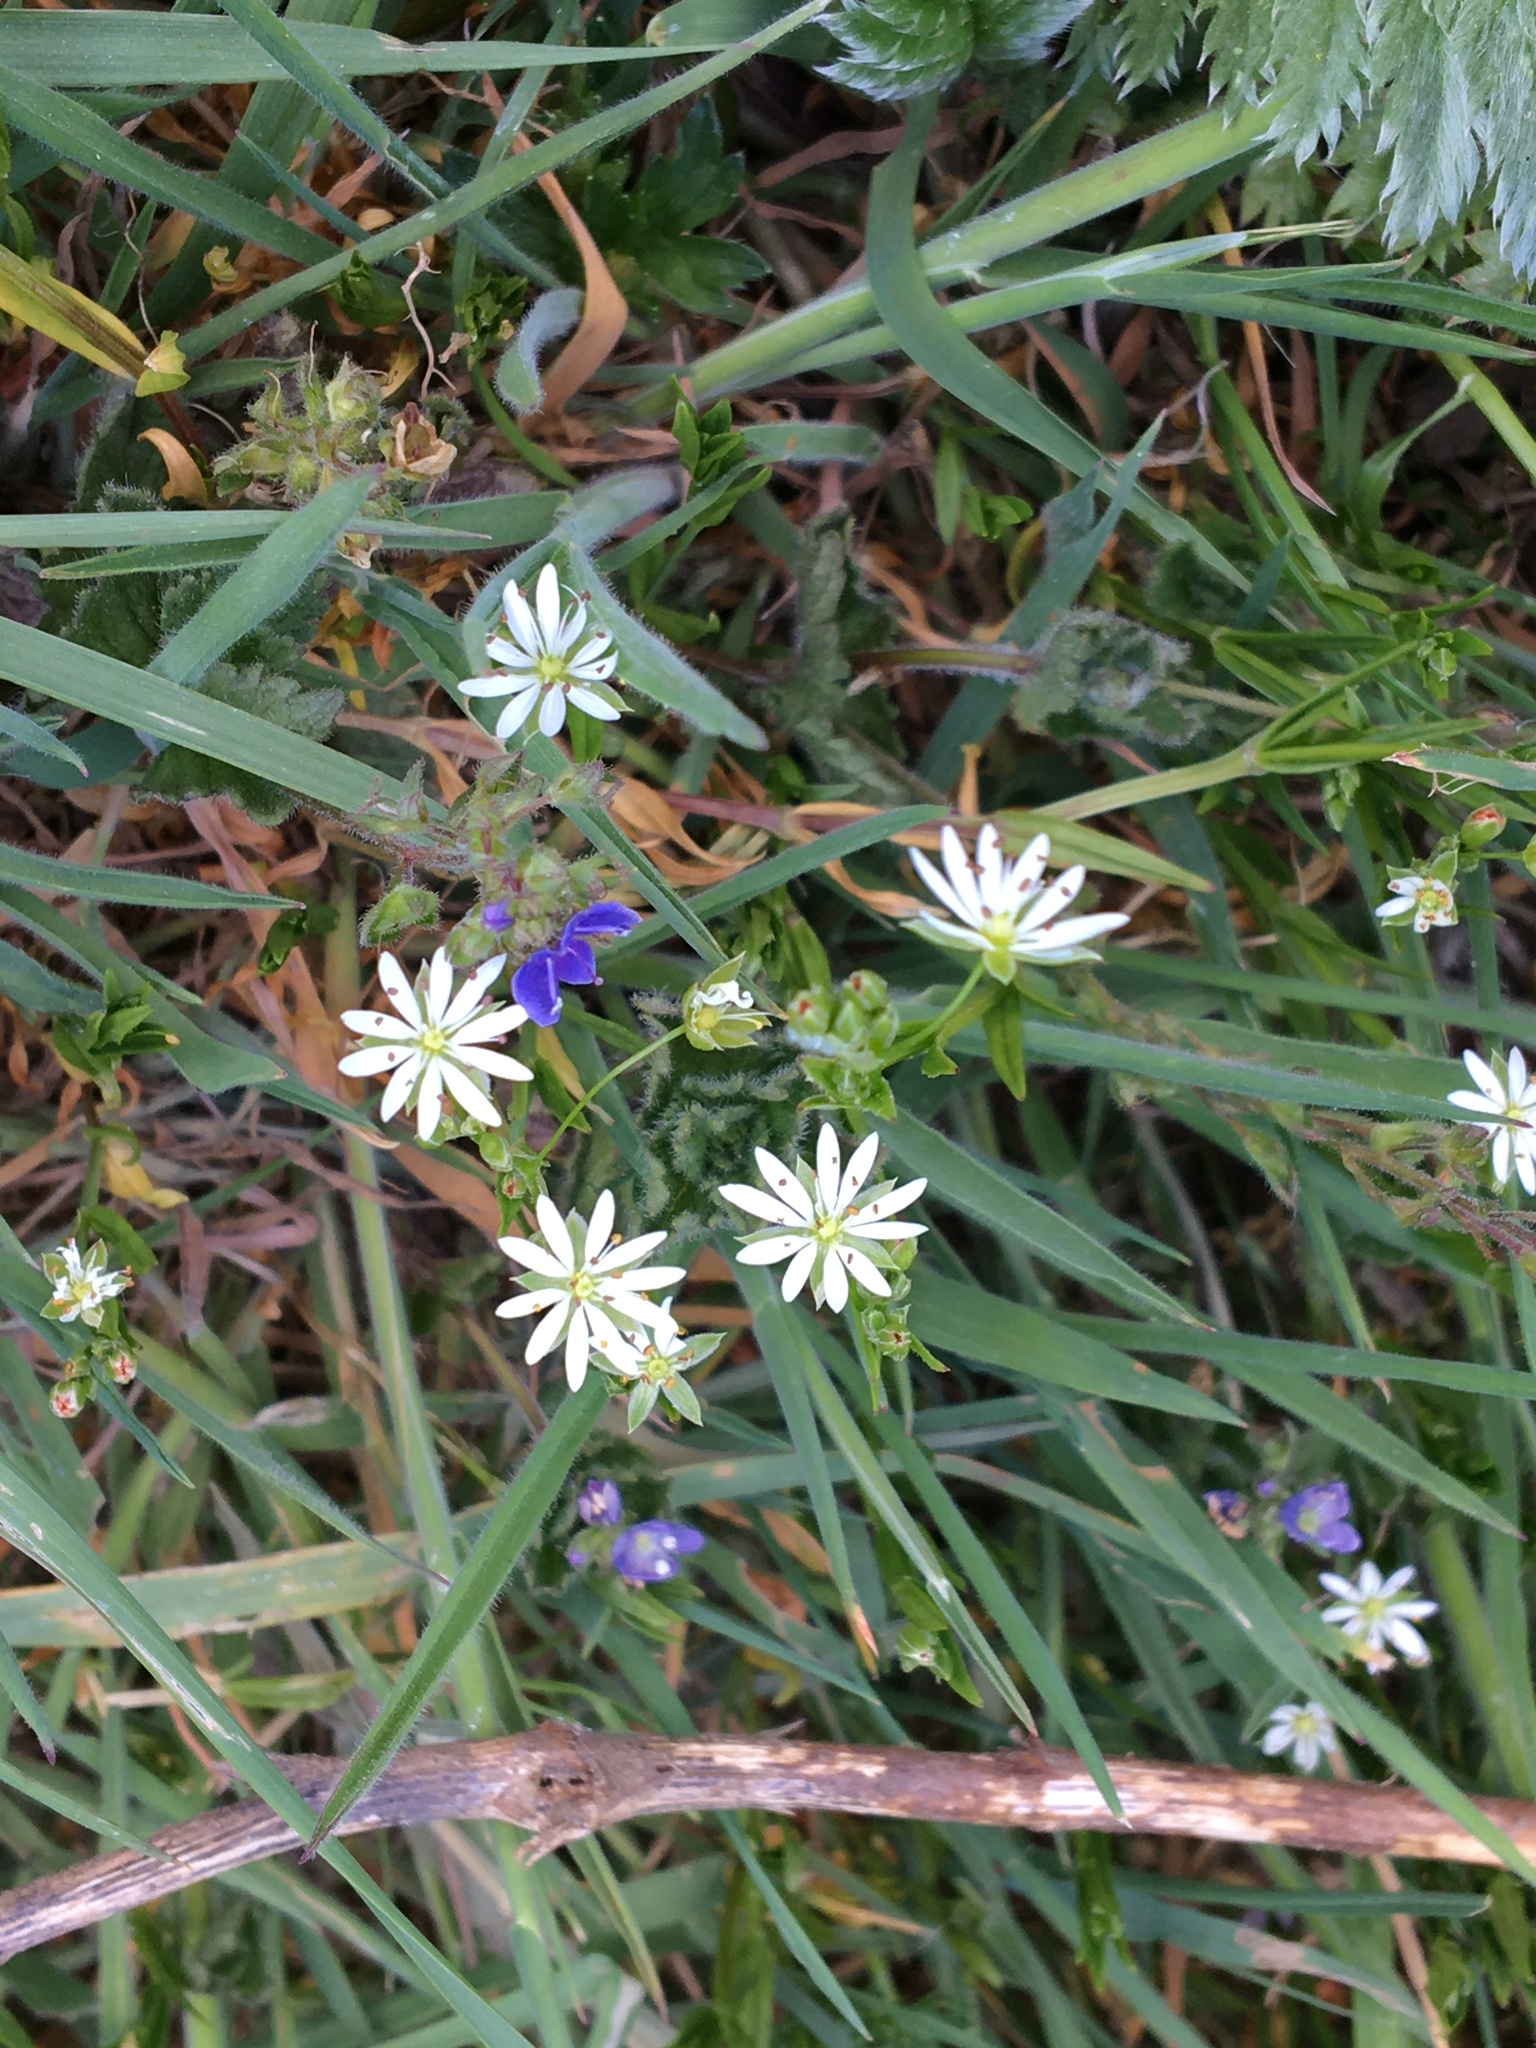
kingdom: Plantae
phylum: Tracheophyta
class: Magnoliopsida
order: Caryophyllales
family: Caryophyllaceae
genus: Stellaria
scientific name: Stellaria graminea
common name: Grass-like starwort
